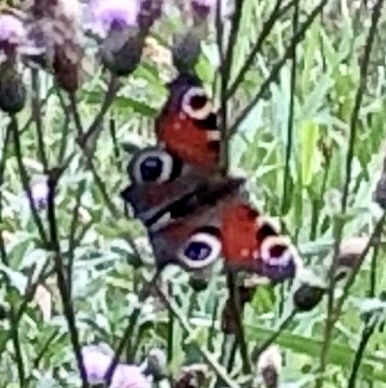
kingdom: Animalia
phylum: Arthropoda
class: Insecta
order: Lepidoptera
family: Nymphalidae
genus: Aglais
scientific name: Aglais io
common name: Peacock
